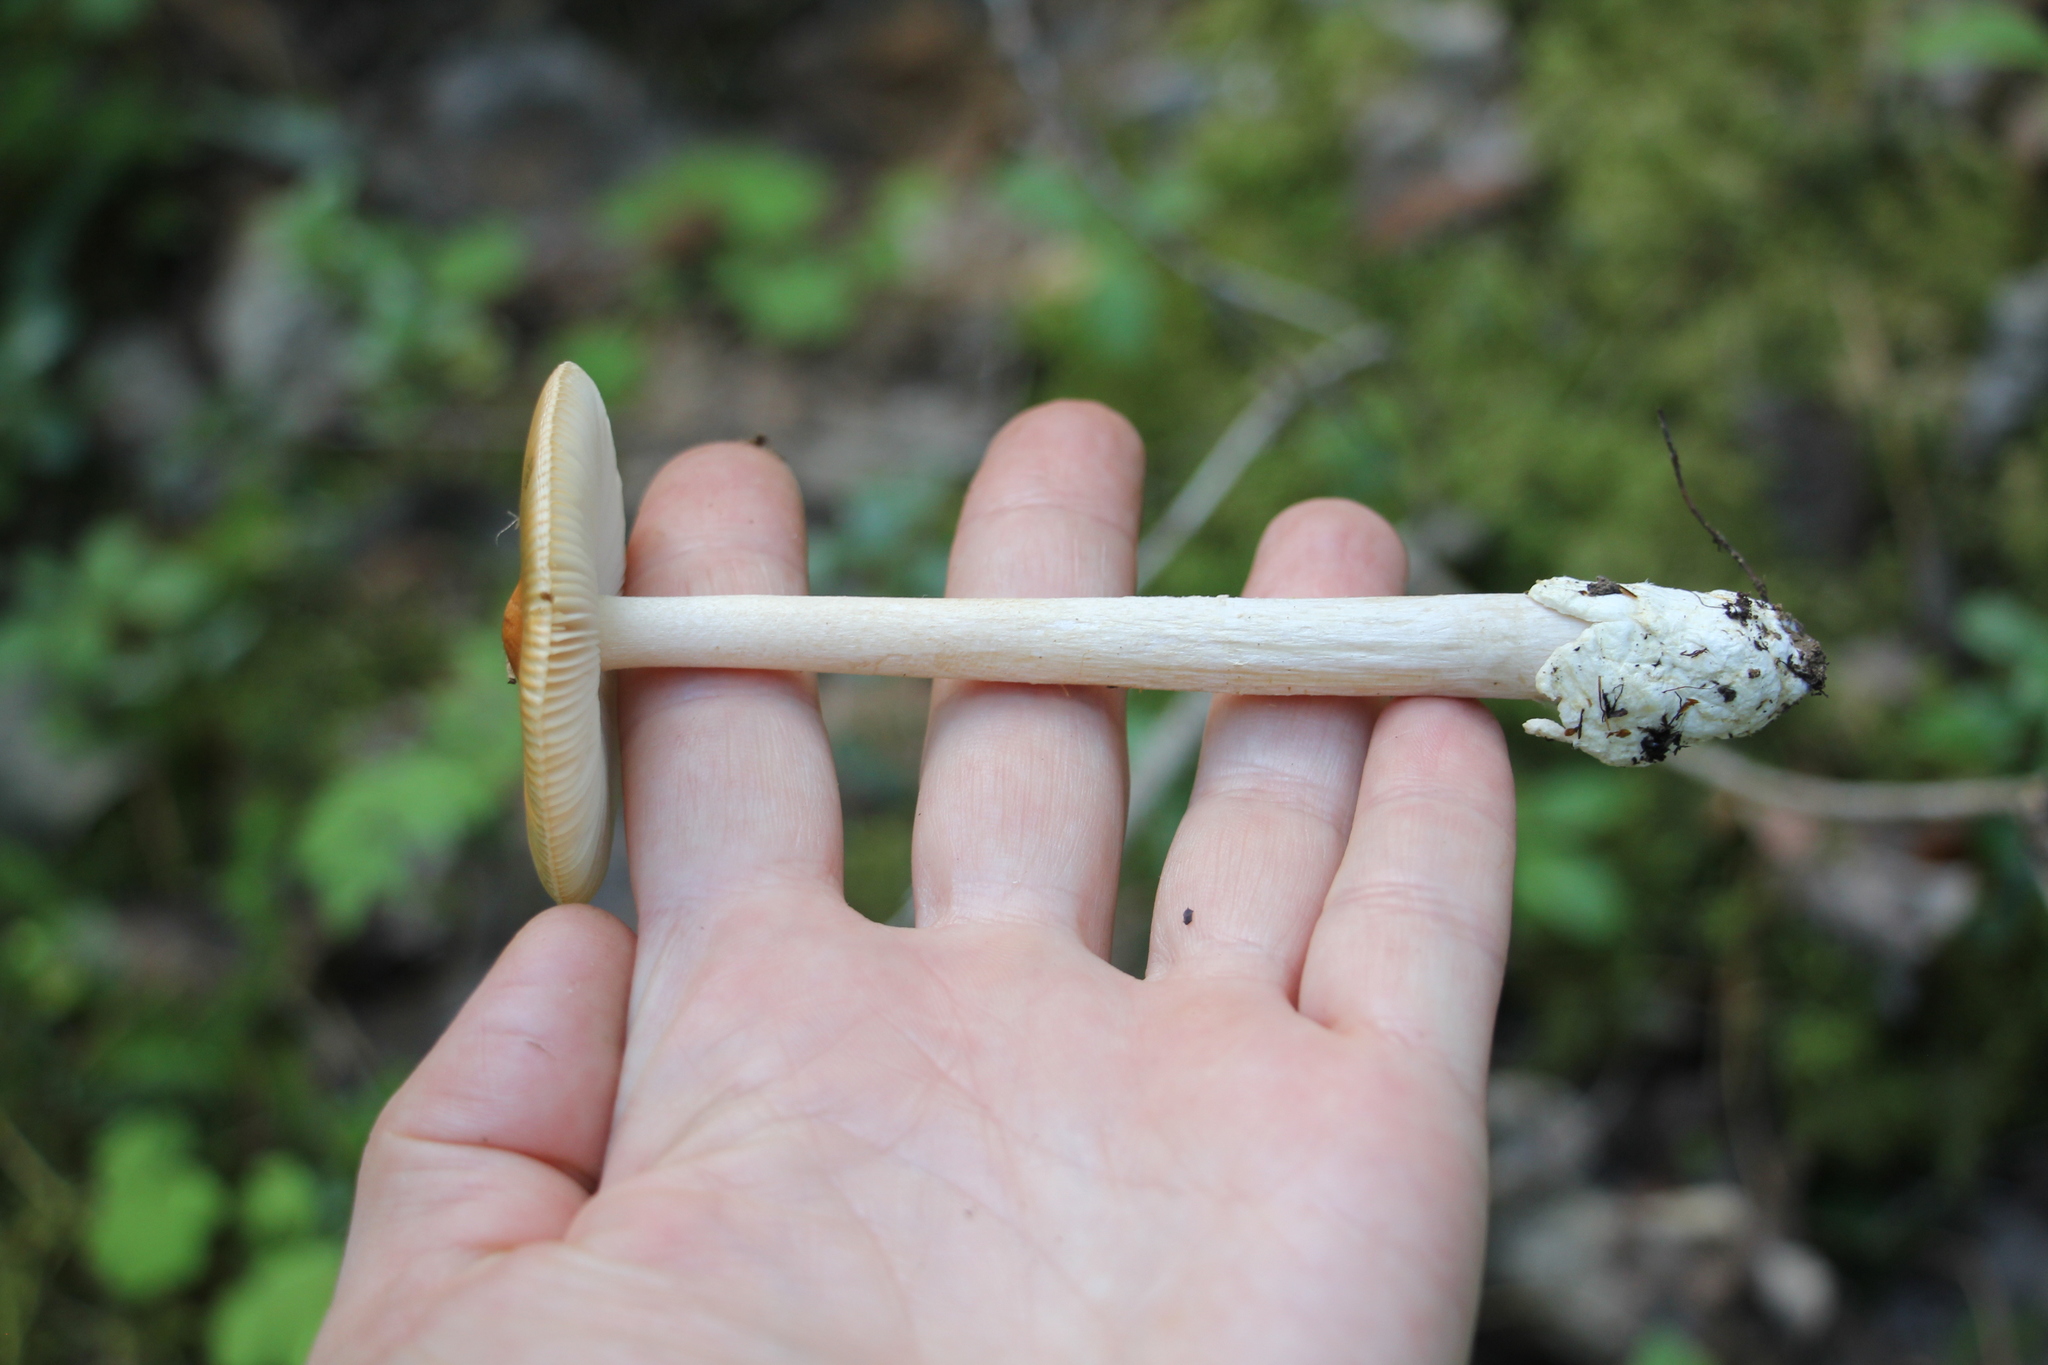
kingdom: Fungi
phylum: Basidiomycota
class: Agaricomycetes
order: Agaricales
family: Amanitaceae
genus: Amanita
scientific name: Amanita crocea
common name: Orange grisette
